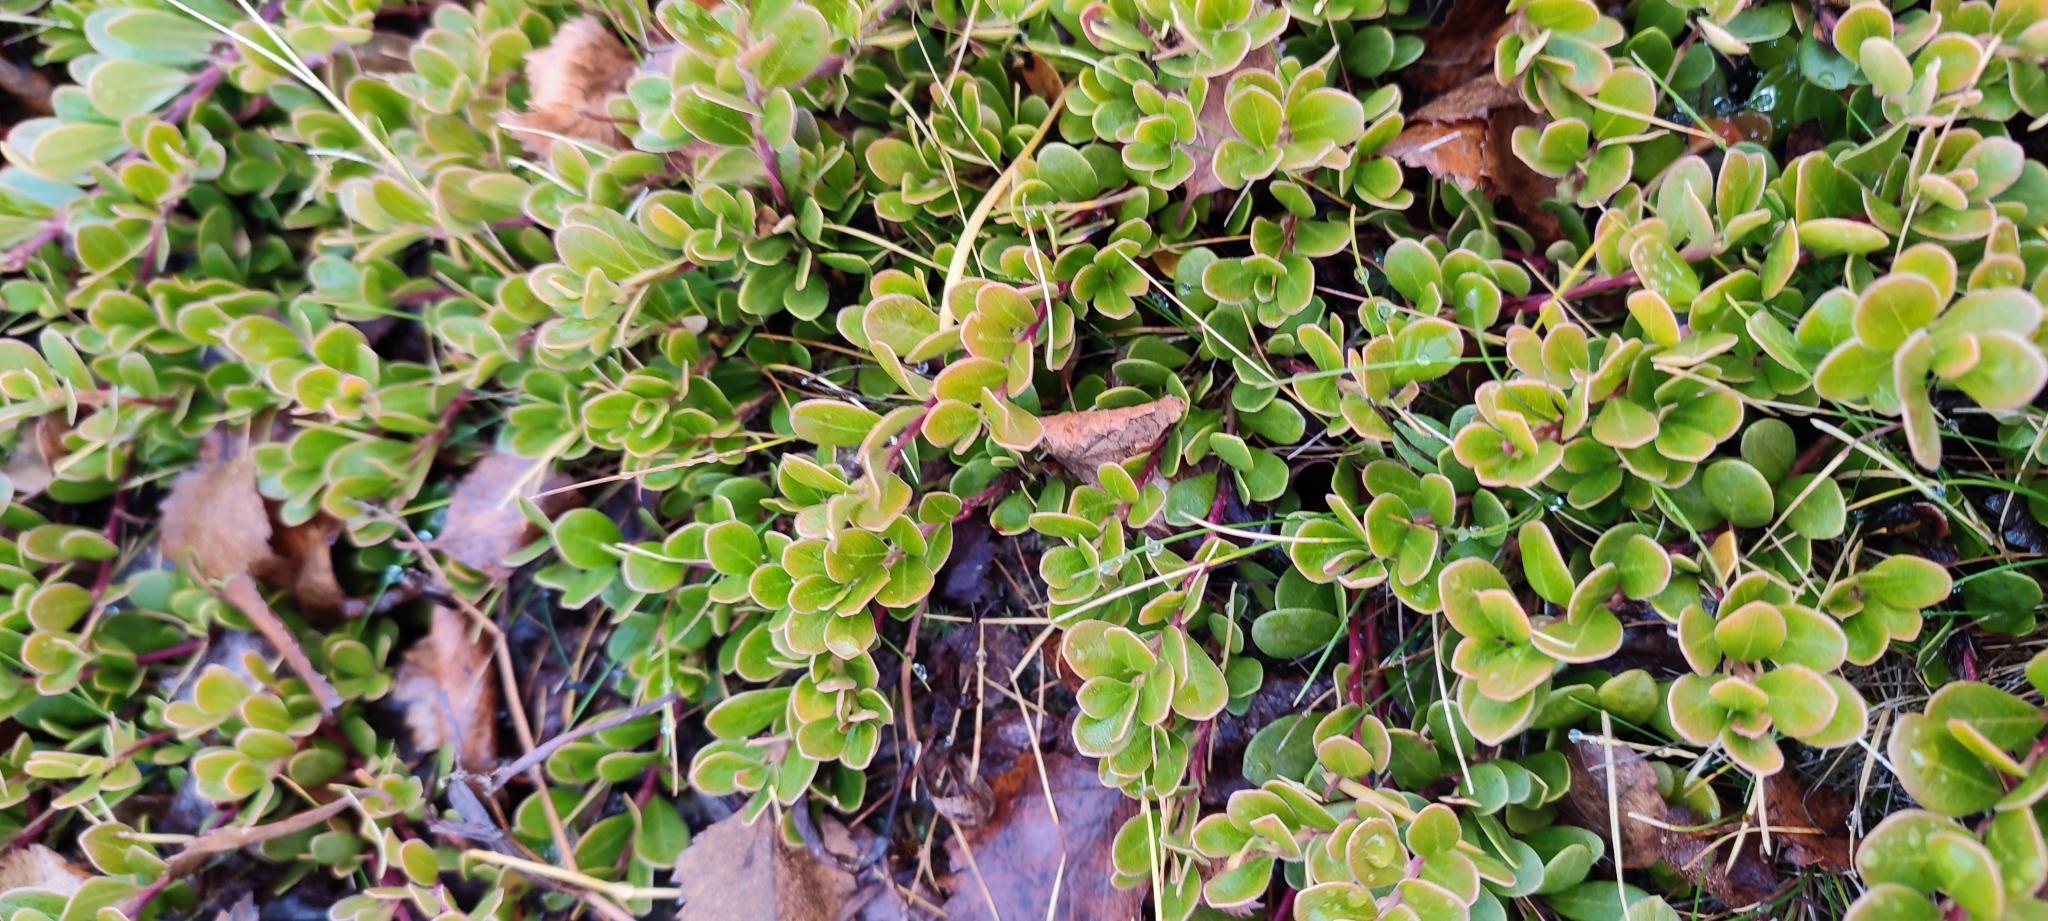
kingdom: Plantae
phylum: Tracheophyta
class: Magnoliopsida
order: Ericales
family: Ericaceae
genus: Arctostaphylos
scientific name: Arctostaphylos uva-ursi
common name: Bearberry
